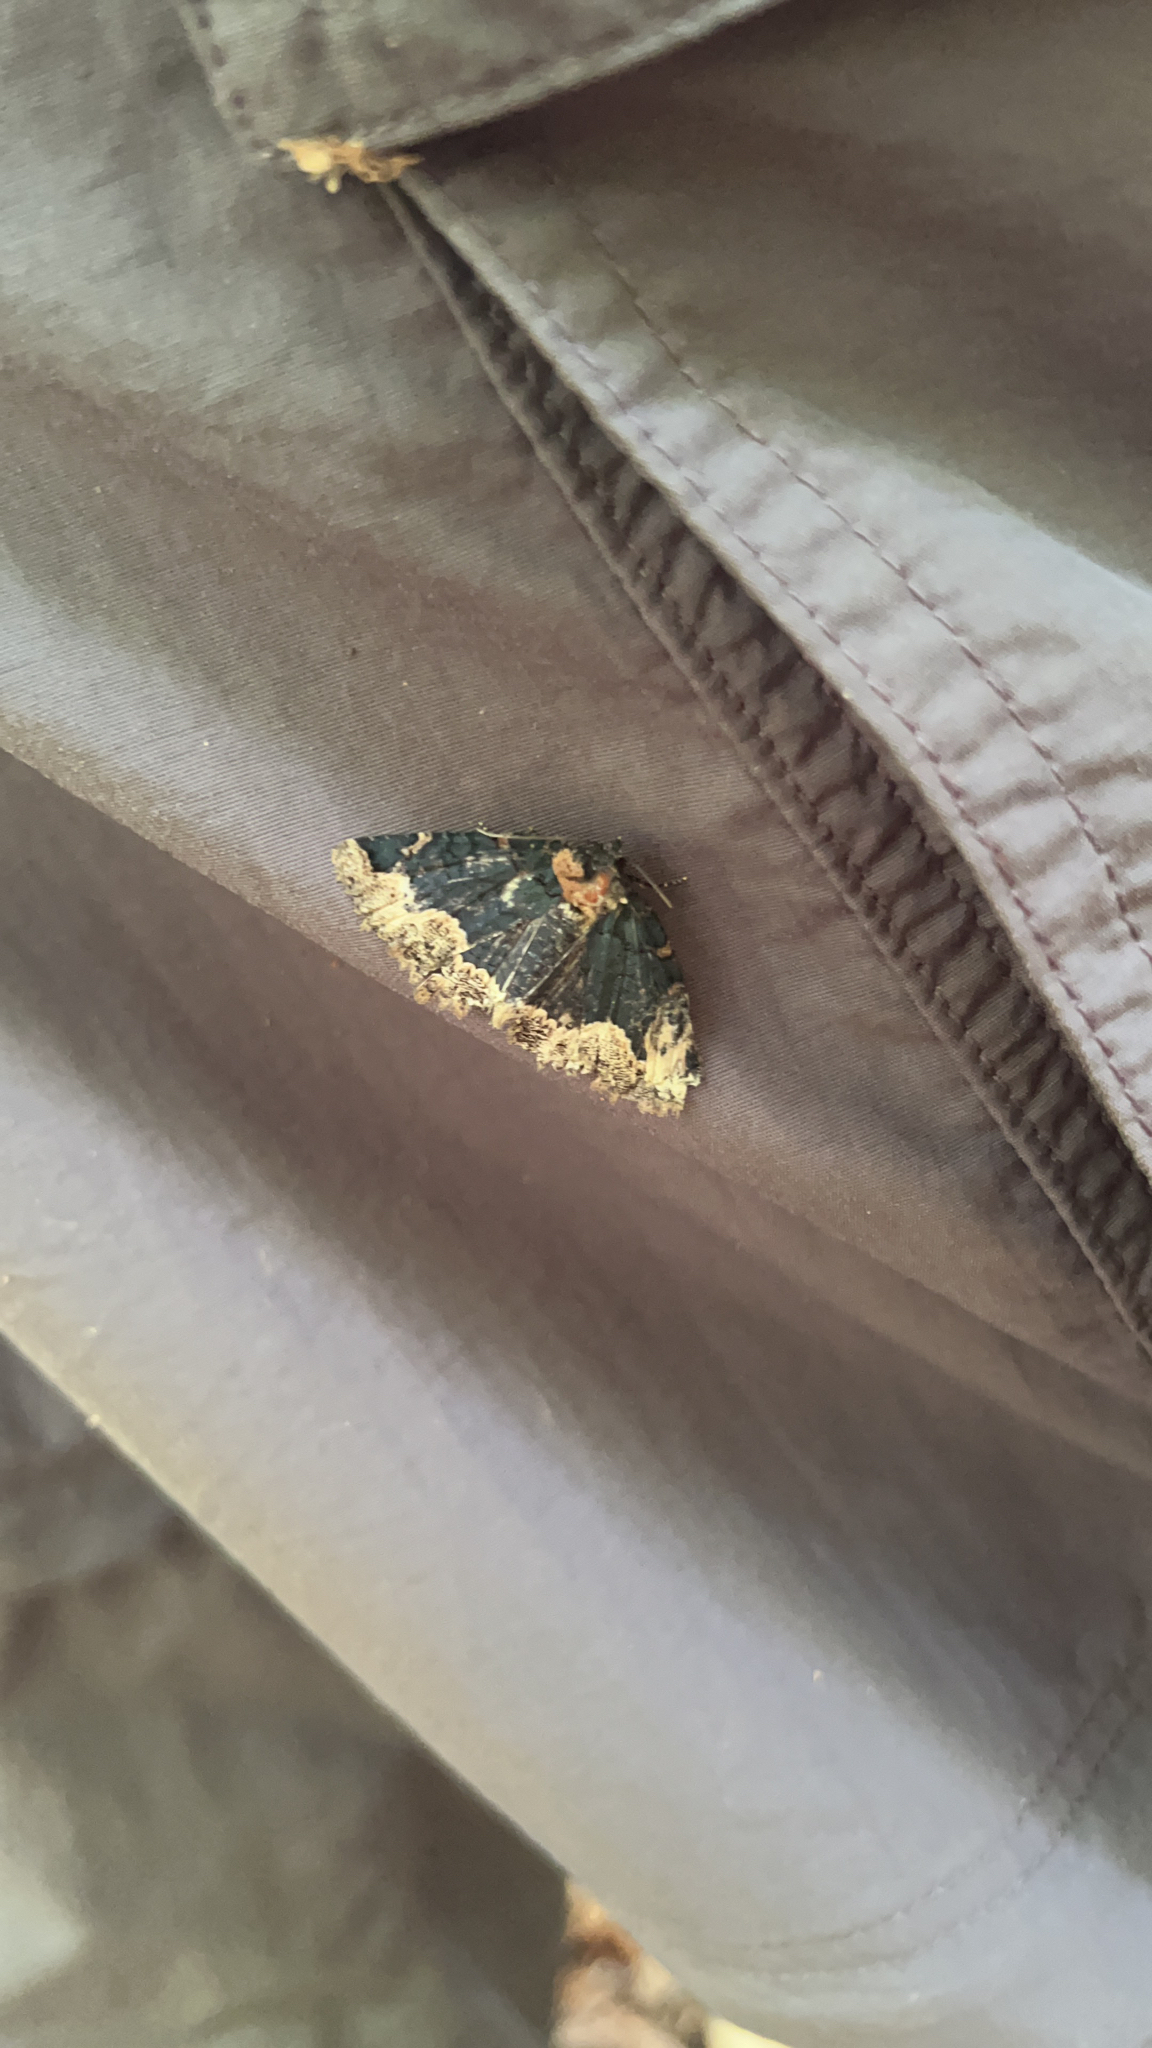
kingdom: Animalia
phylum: Arthropoda
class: Insecta
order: Lepidoptera
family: Erebidae
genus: Zale
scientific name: Zale horrida
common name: Horrid zale moth
